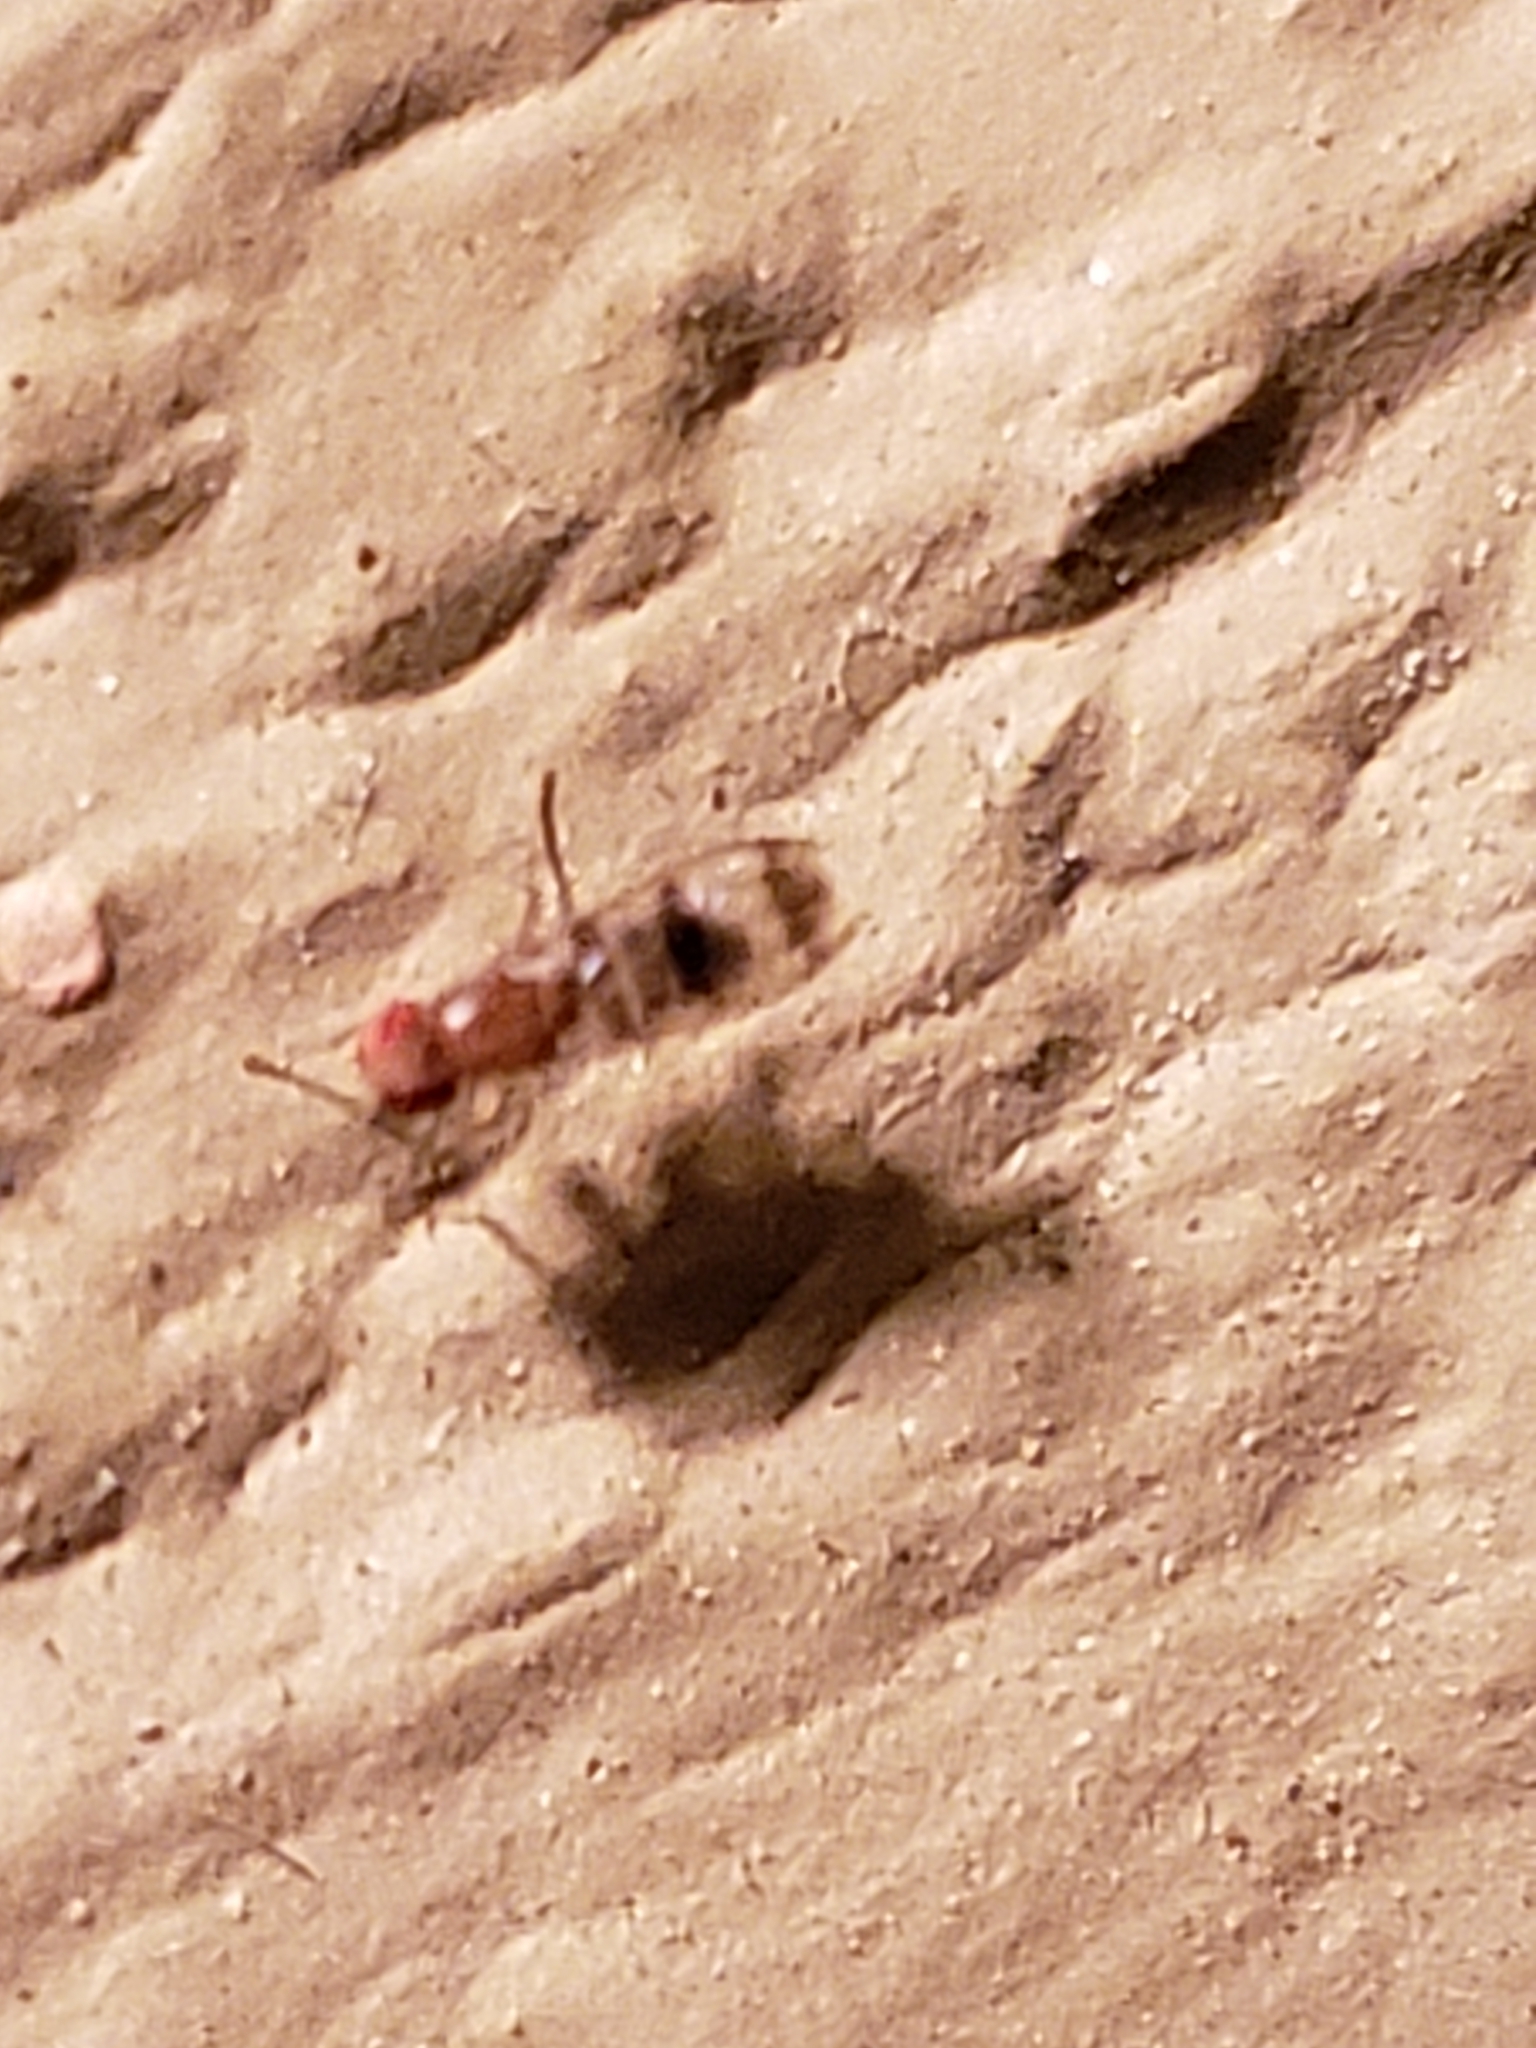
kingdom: Animalia
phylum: Arthropoda
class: Insecta
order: Diptera
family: Drosophilidae
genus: Chymomyza
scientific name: Chymomyza amoena
